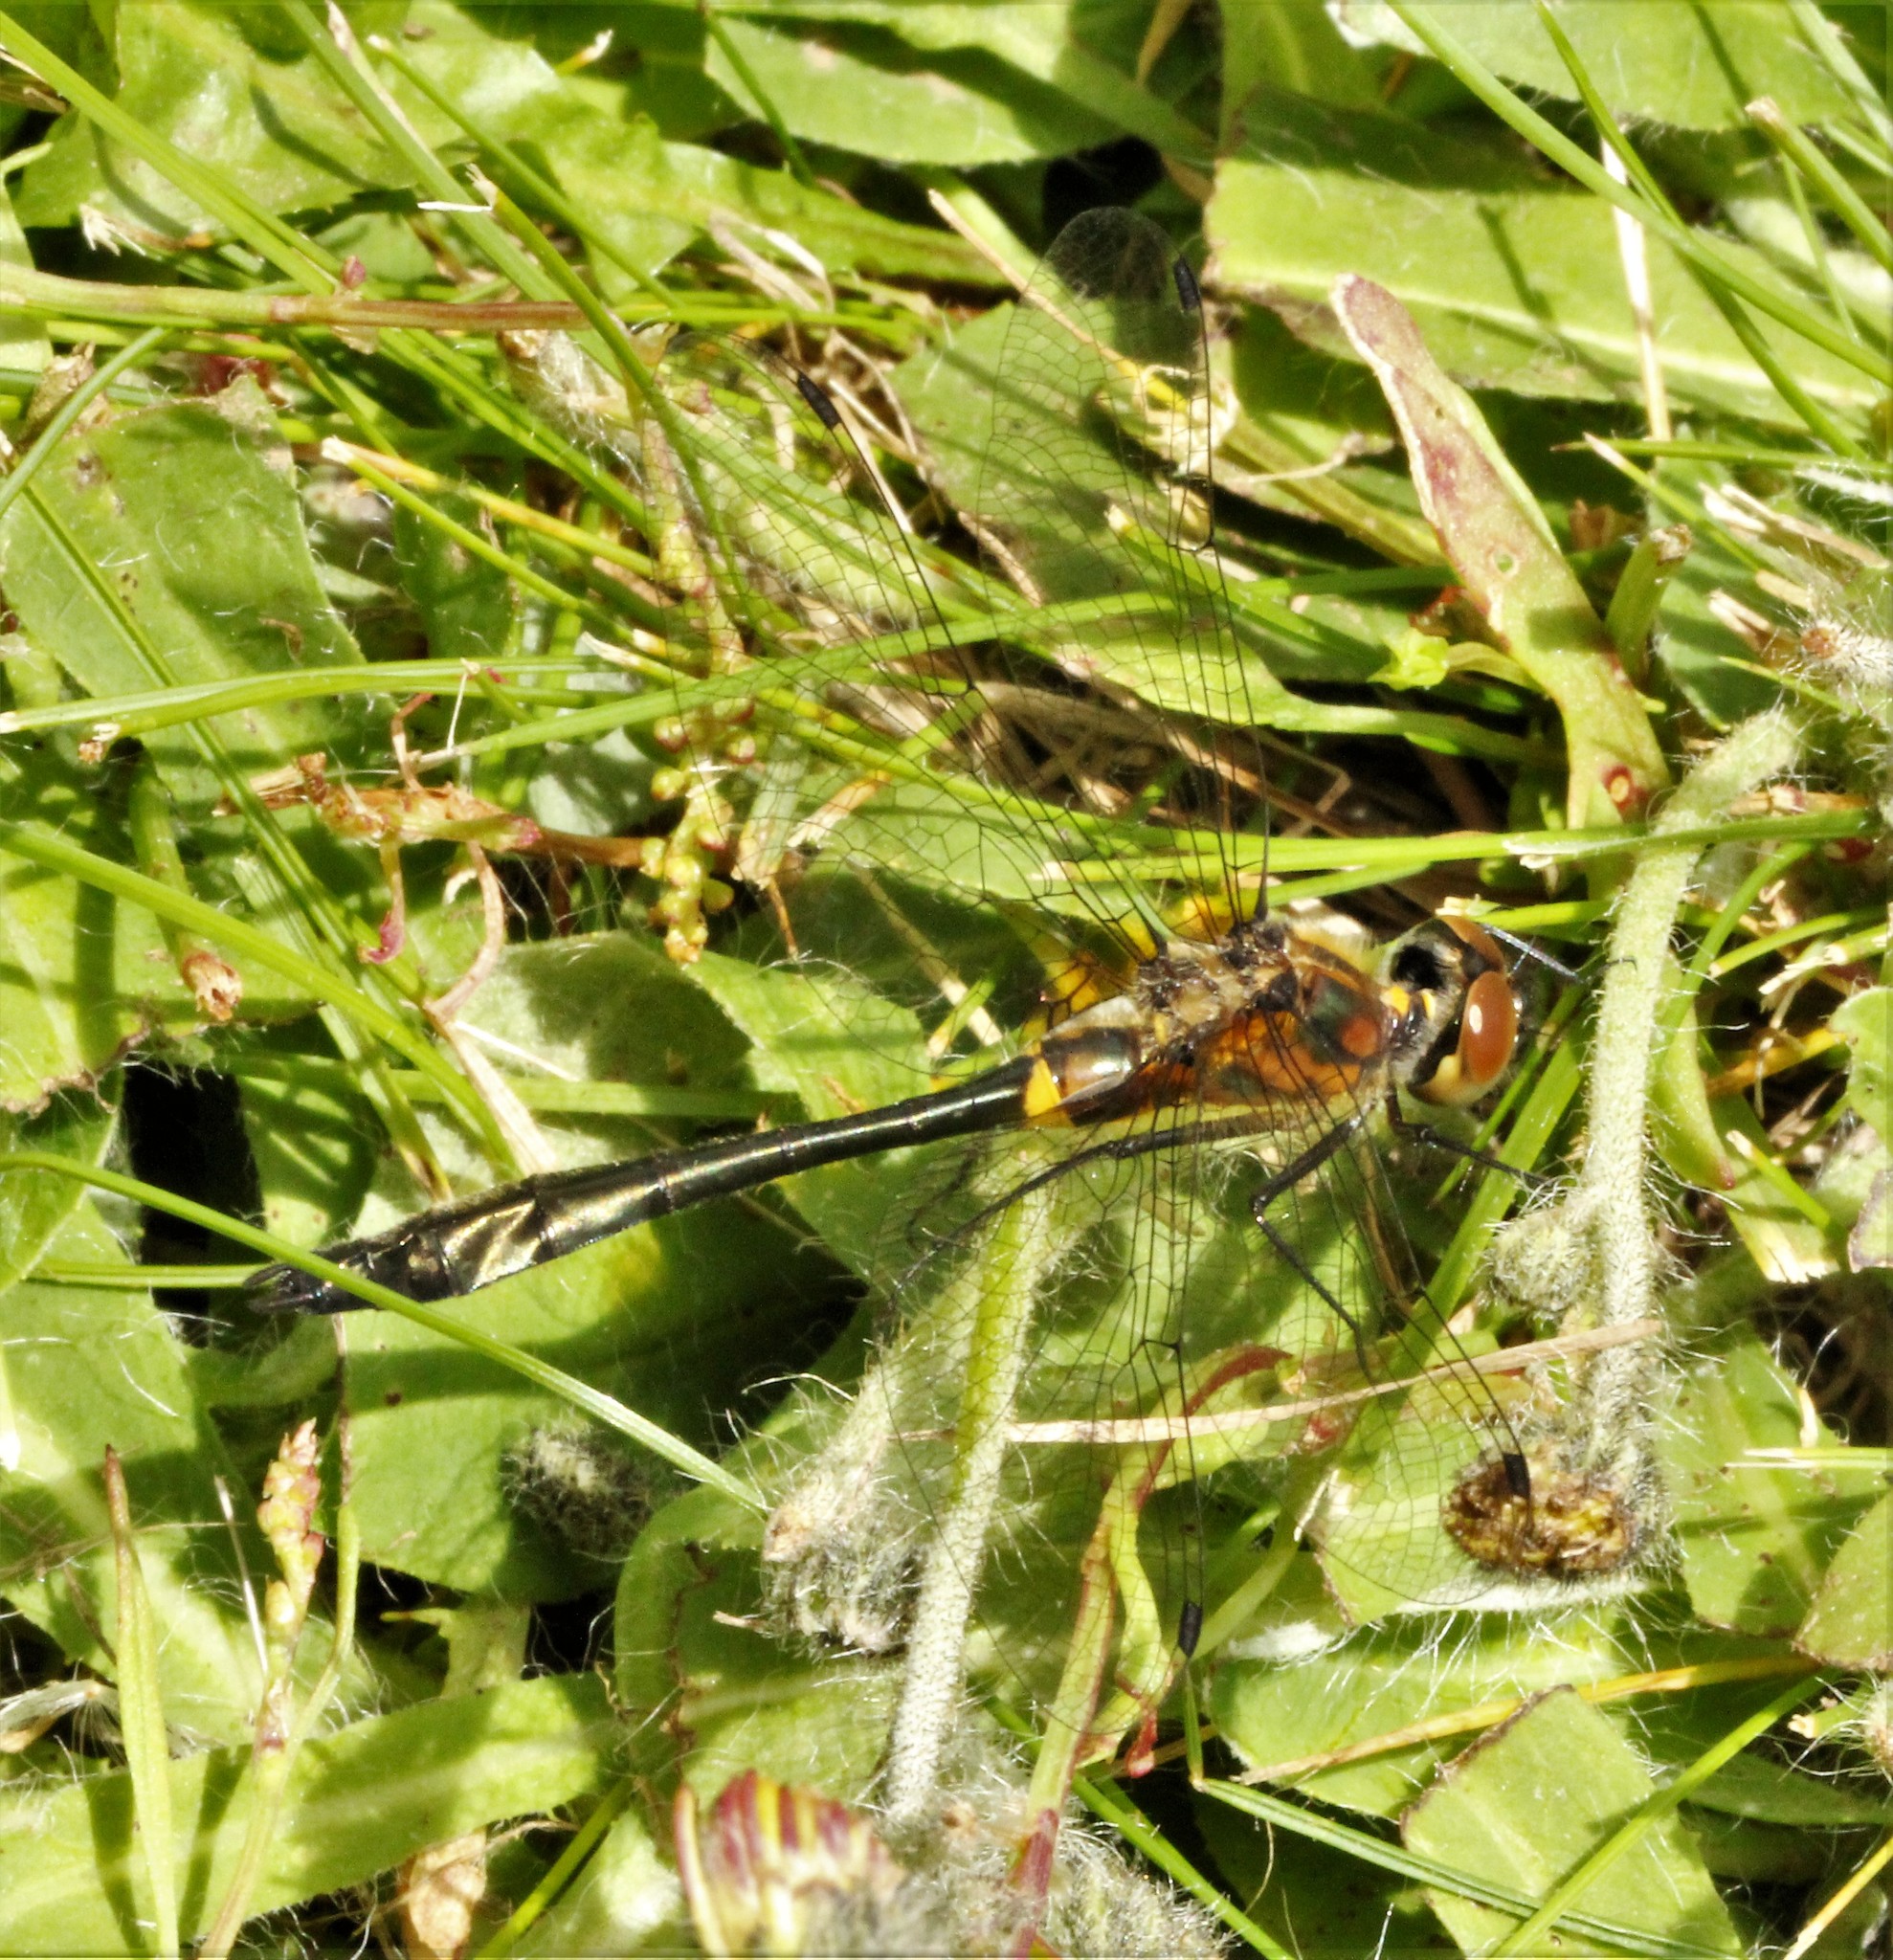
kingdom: Animalia
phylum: Arthropoda
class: Insecta
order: Odonata
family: Corduliidae
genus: Dorocordulia
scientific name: Dorocordulia libera
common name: Racket-tailed emerald
